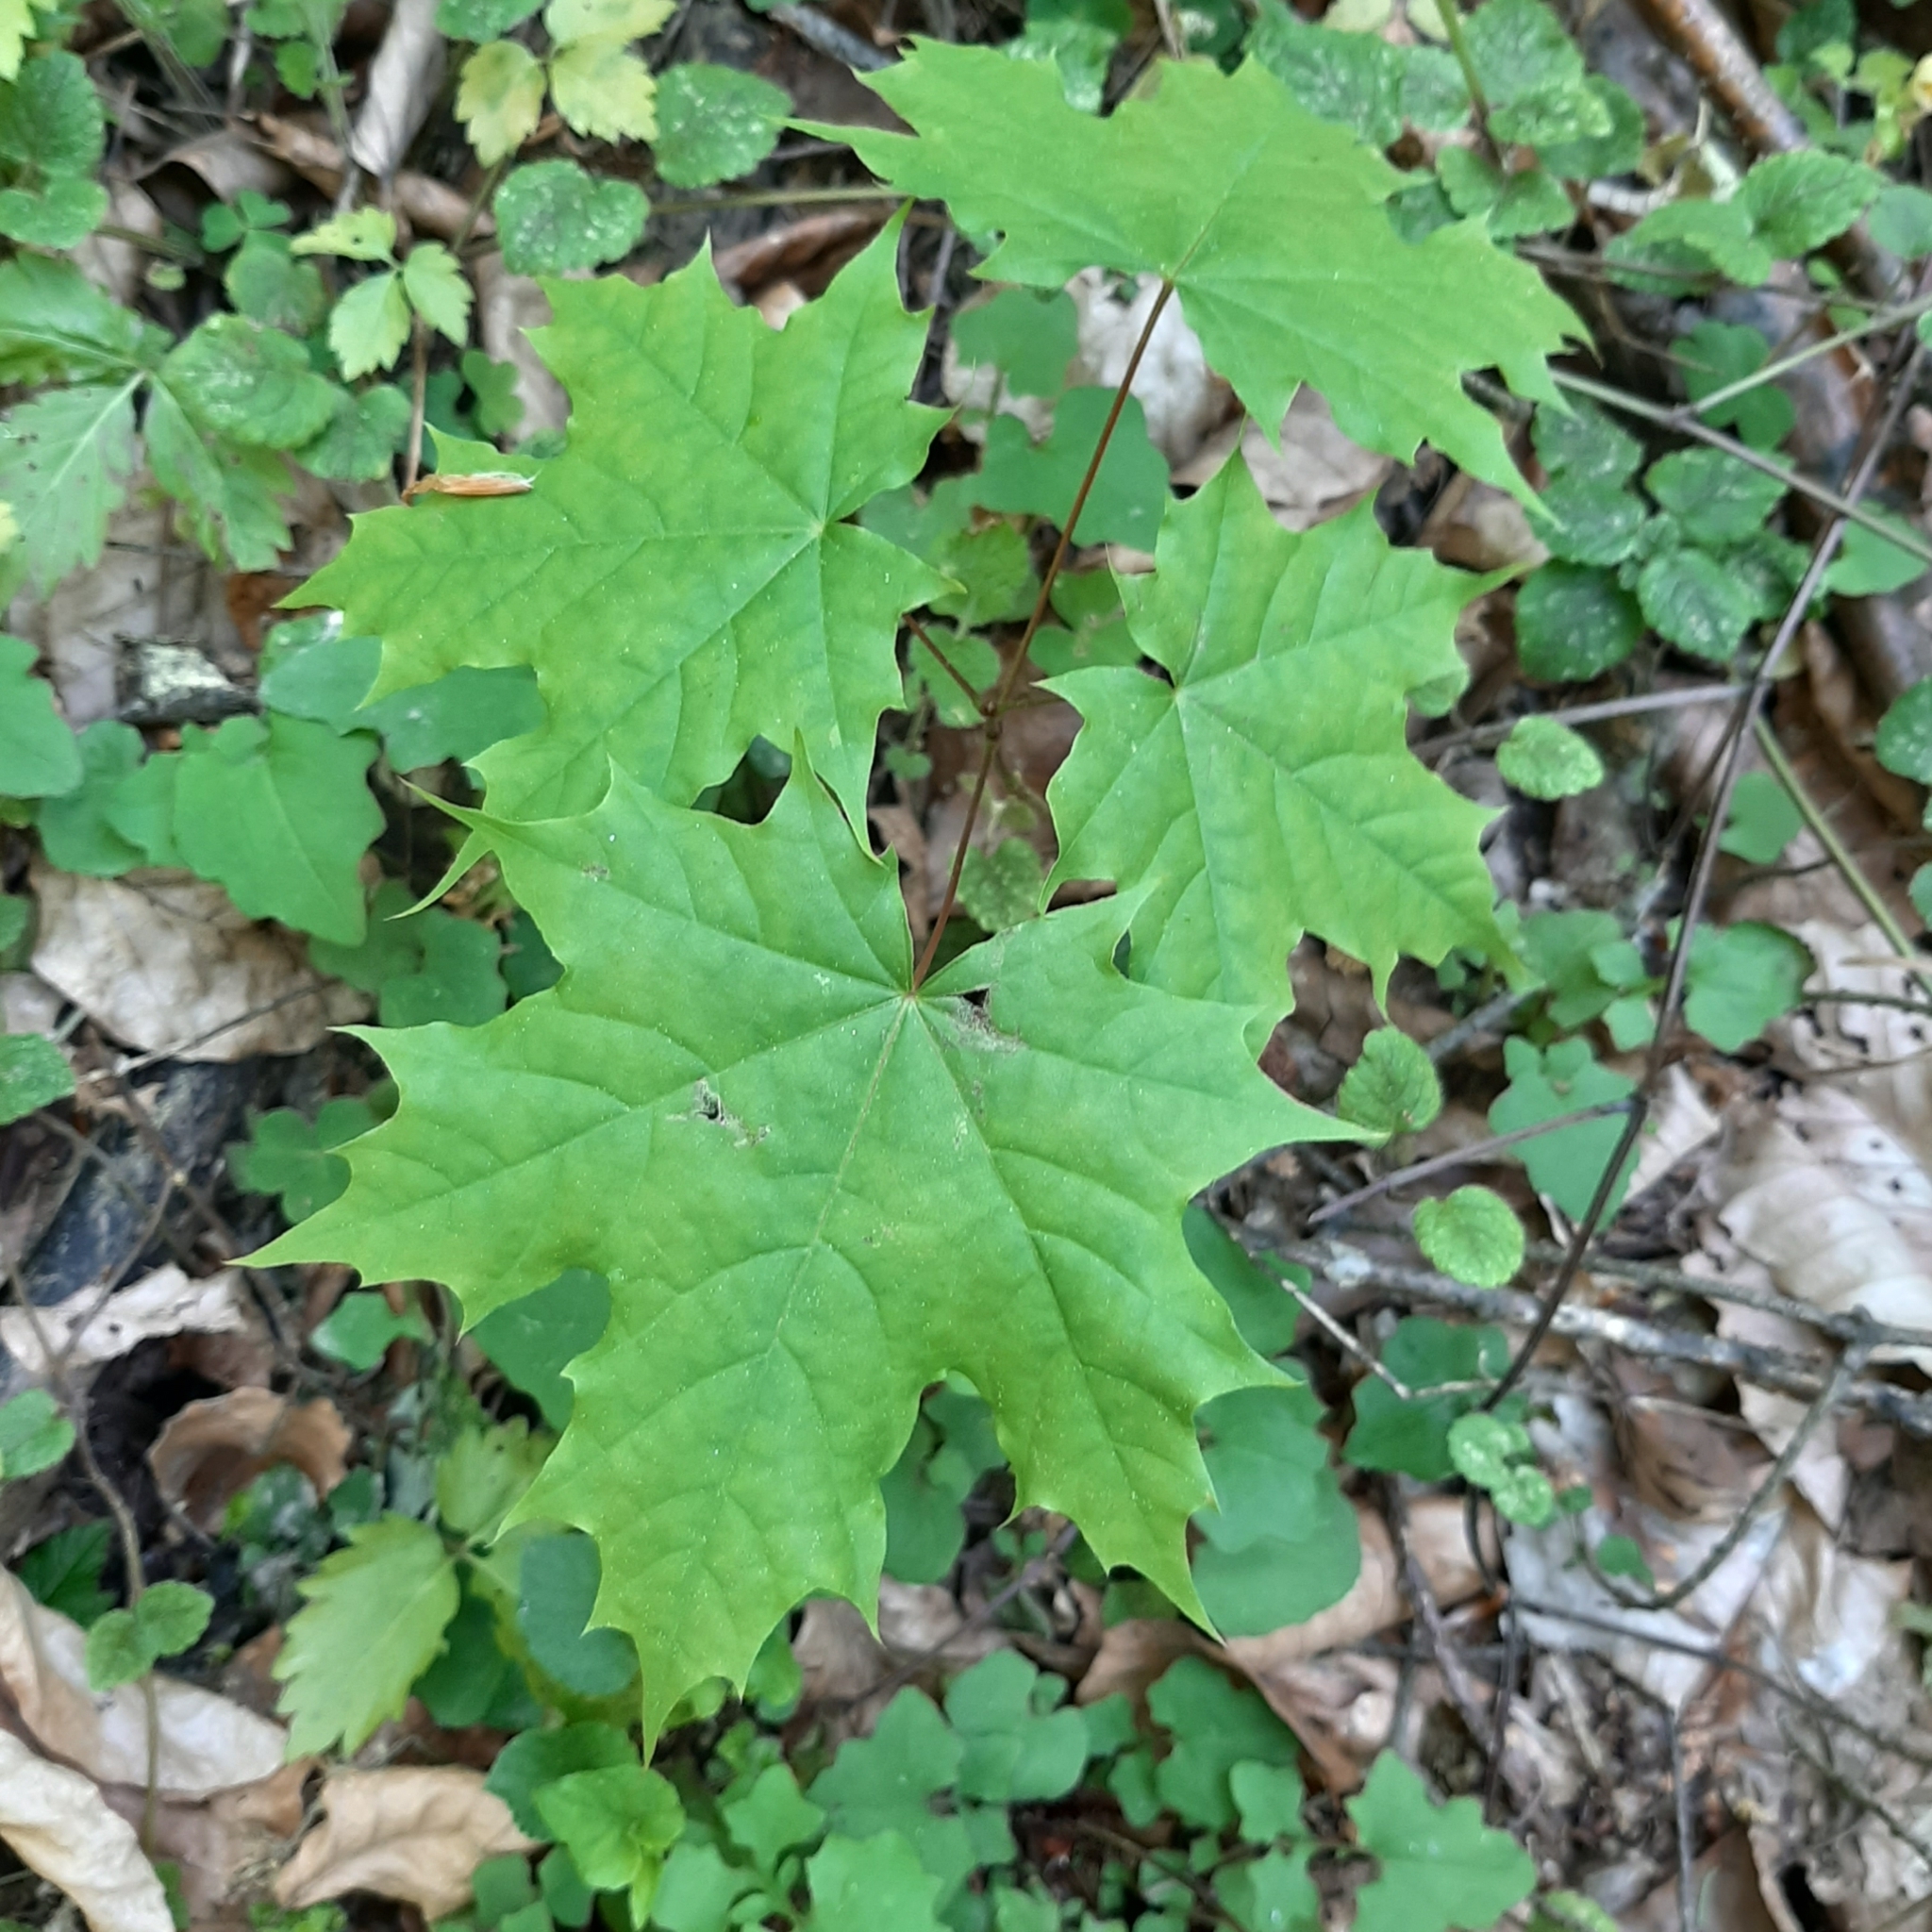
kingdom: Plantae
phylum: Tracheophyta
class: Magnoliopsida
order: Sapindales
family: Sapindaceae
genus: Acer
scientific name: Acer platanoides
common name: Norway maple
